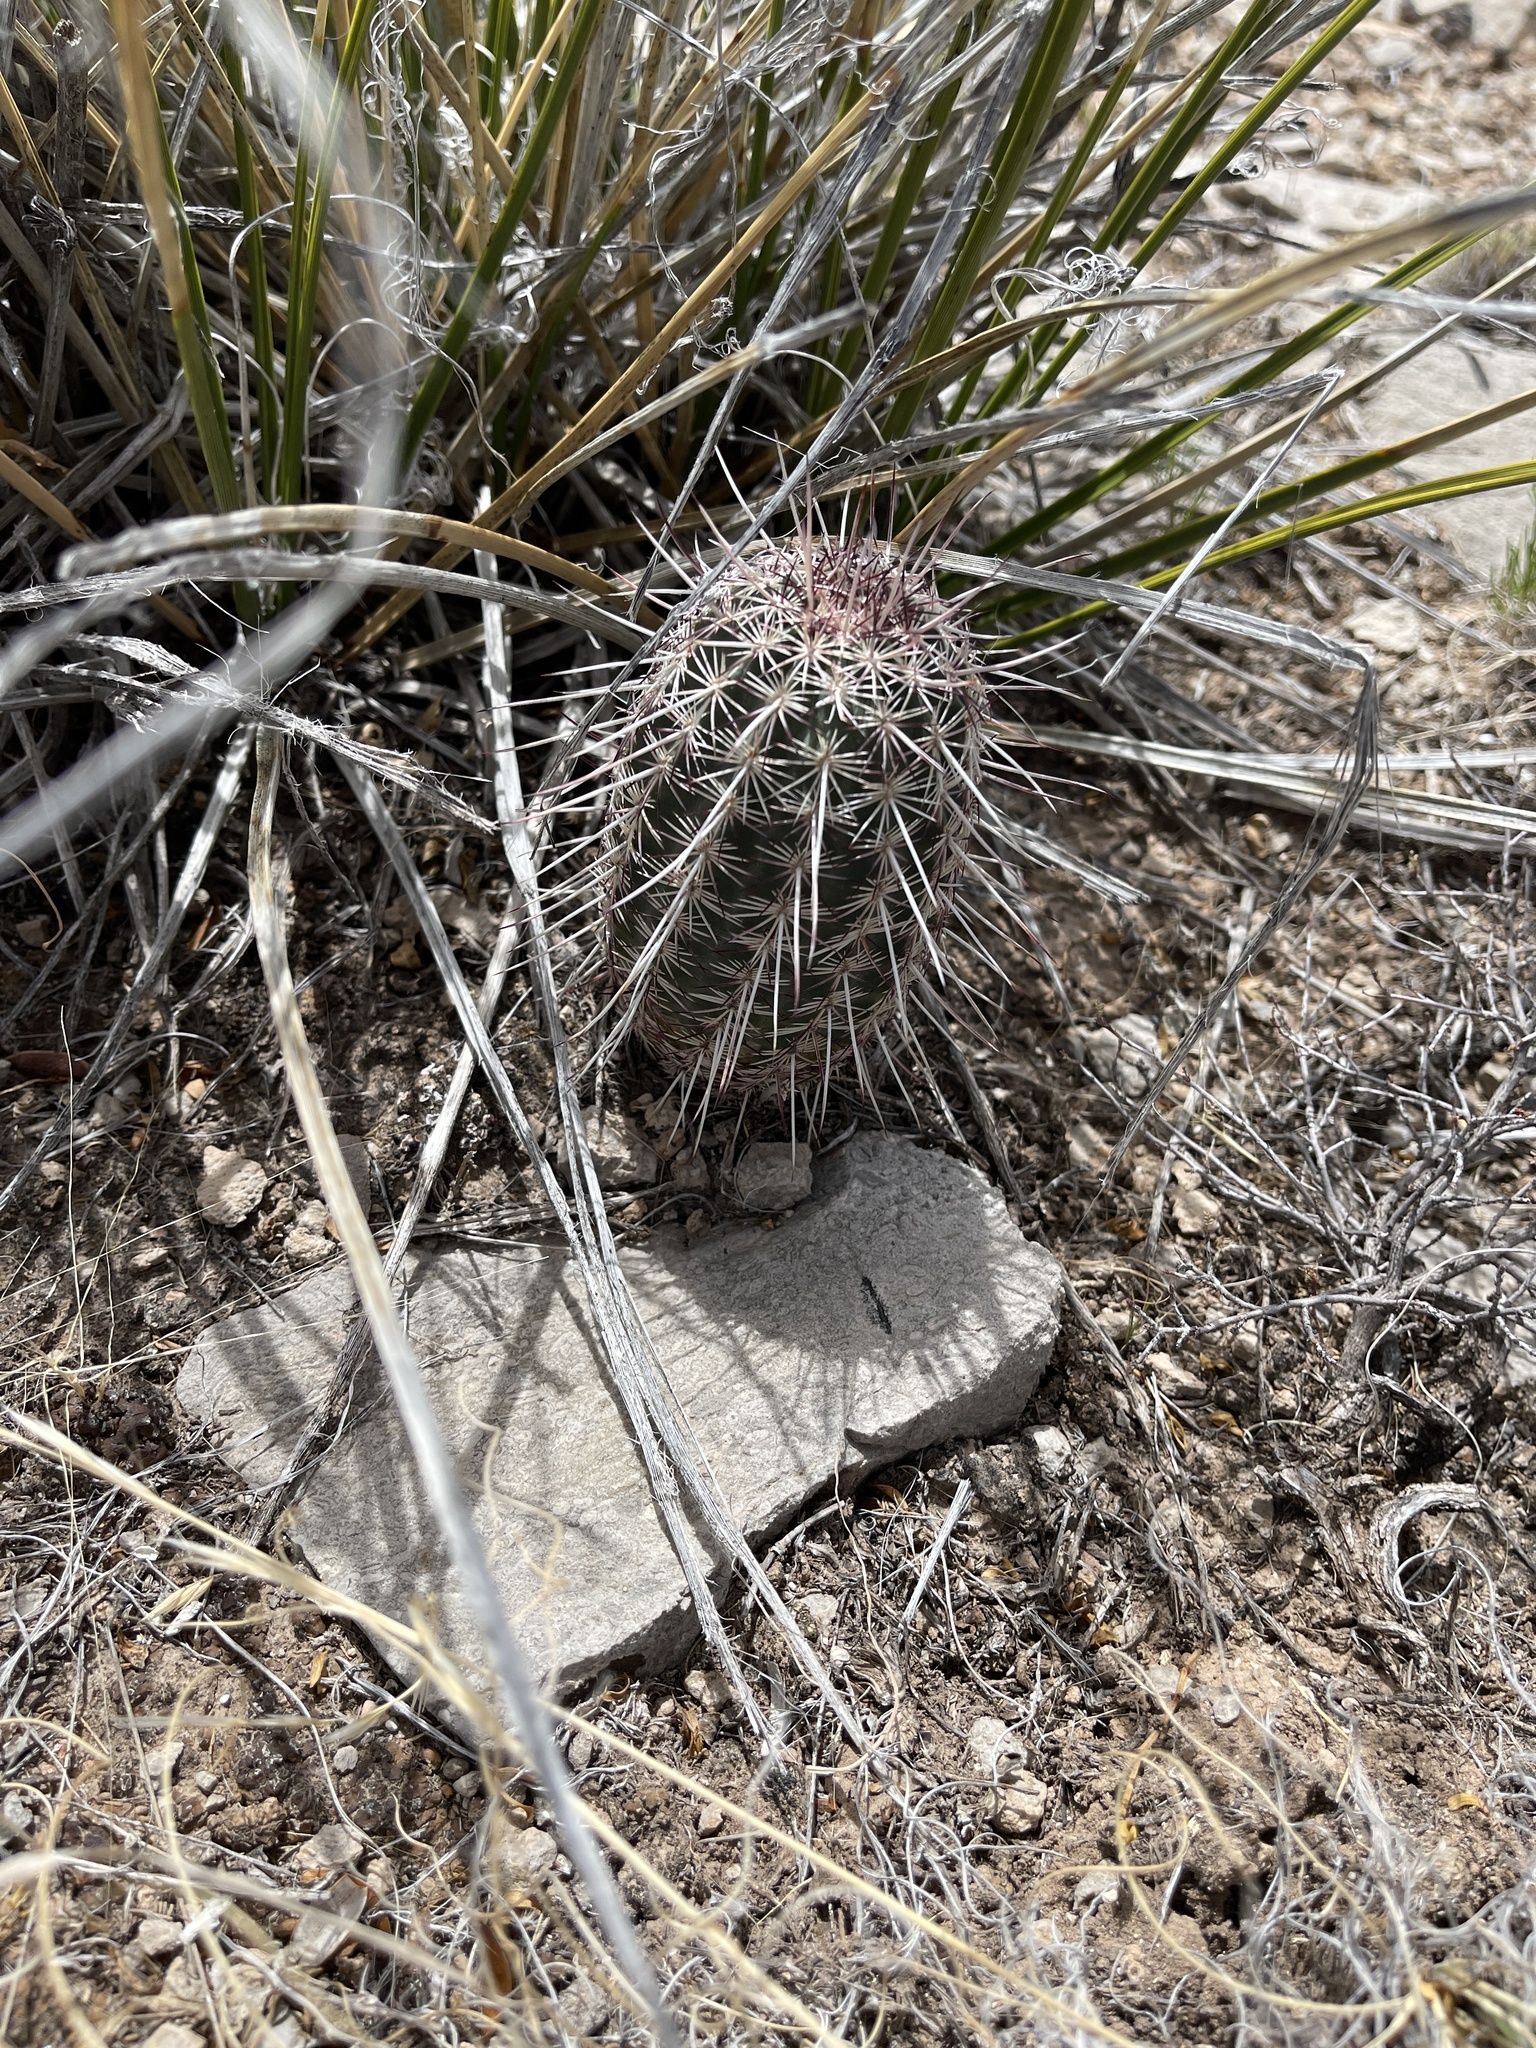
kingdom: Plantae
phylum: Tracheophyta
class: Magnoliopsida
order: Caryophyllales
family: Cactaceae
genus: Echinocereus
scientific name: Echinocereus viridiflorus
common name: Nylon hedgehog cactus
